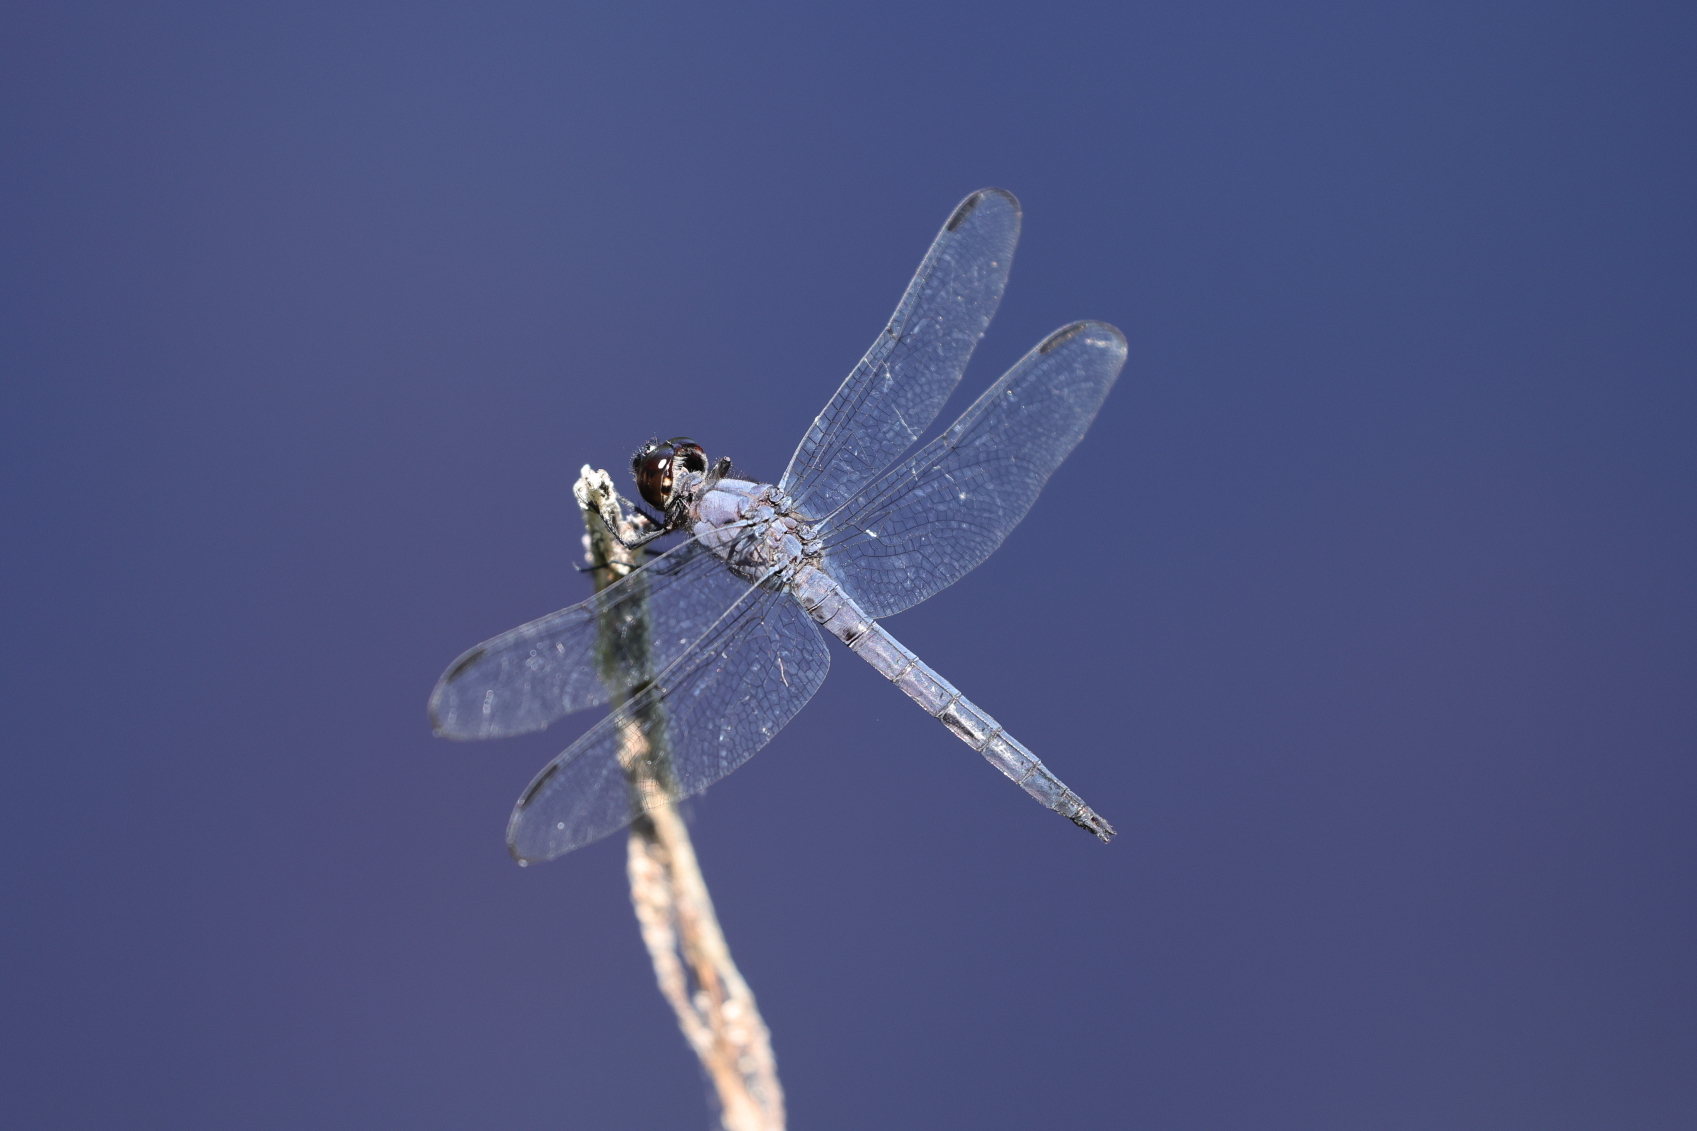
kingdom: Animalia
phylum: Arthropoda
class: Insecta
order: Odonata
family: Libellulidae
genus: Libellula
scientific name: Libellula incesta
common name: Slaty skimmer
